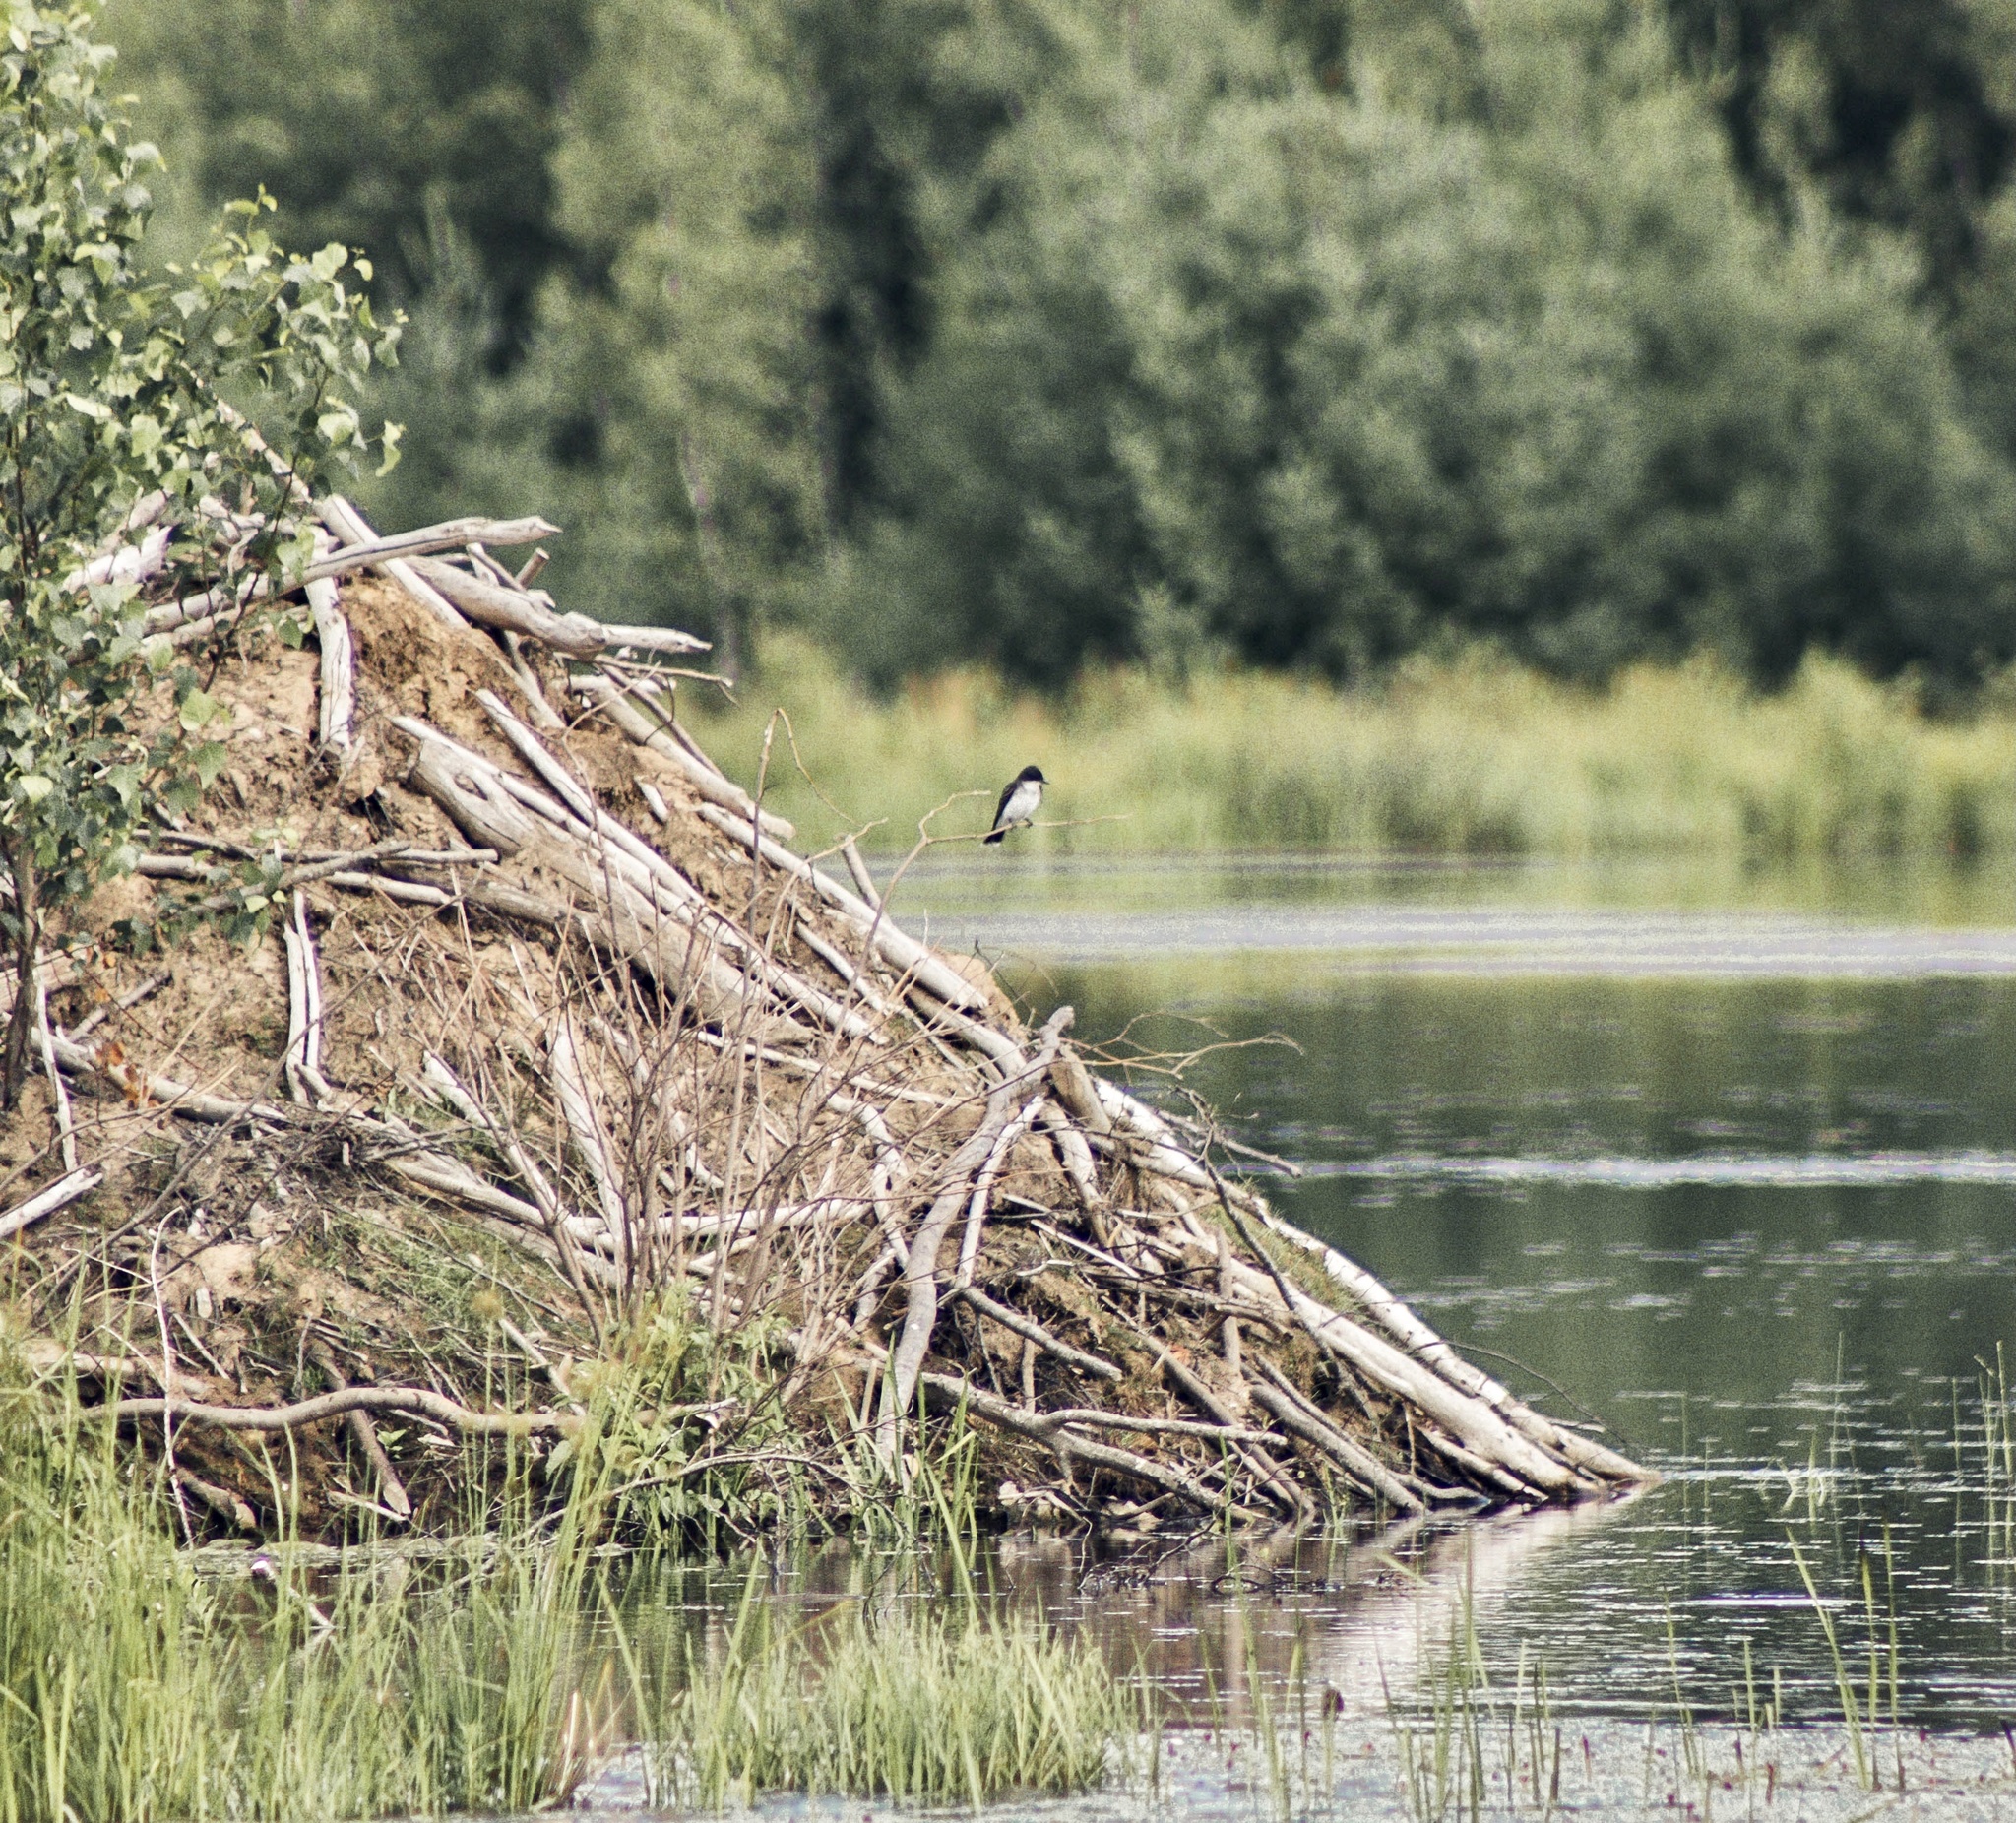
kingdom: Animalia
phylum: Chordata
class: Aves
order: Passeriformes
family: Tyrannidae
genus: Tyrannus
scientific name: Tyrannus tyrannus
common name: Eastern kingbird
